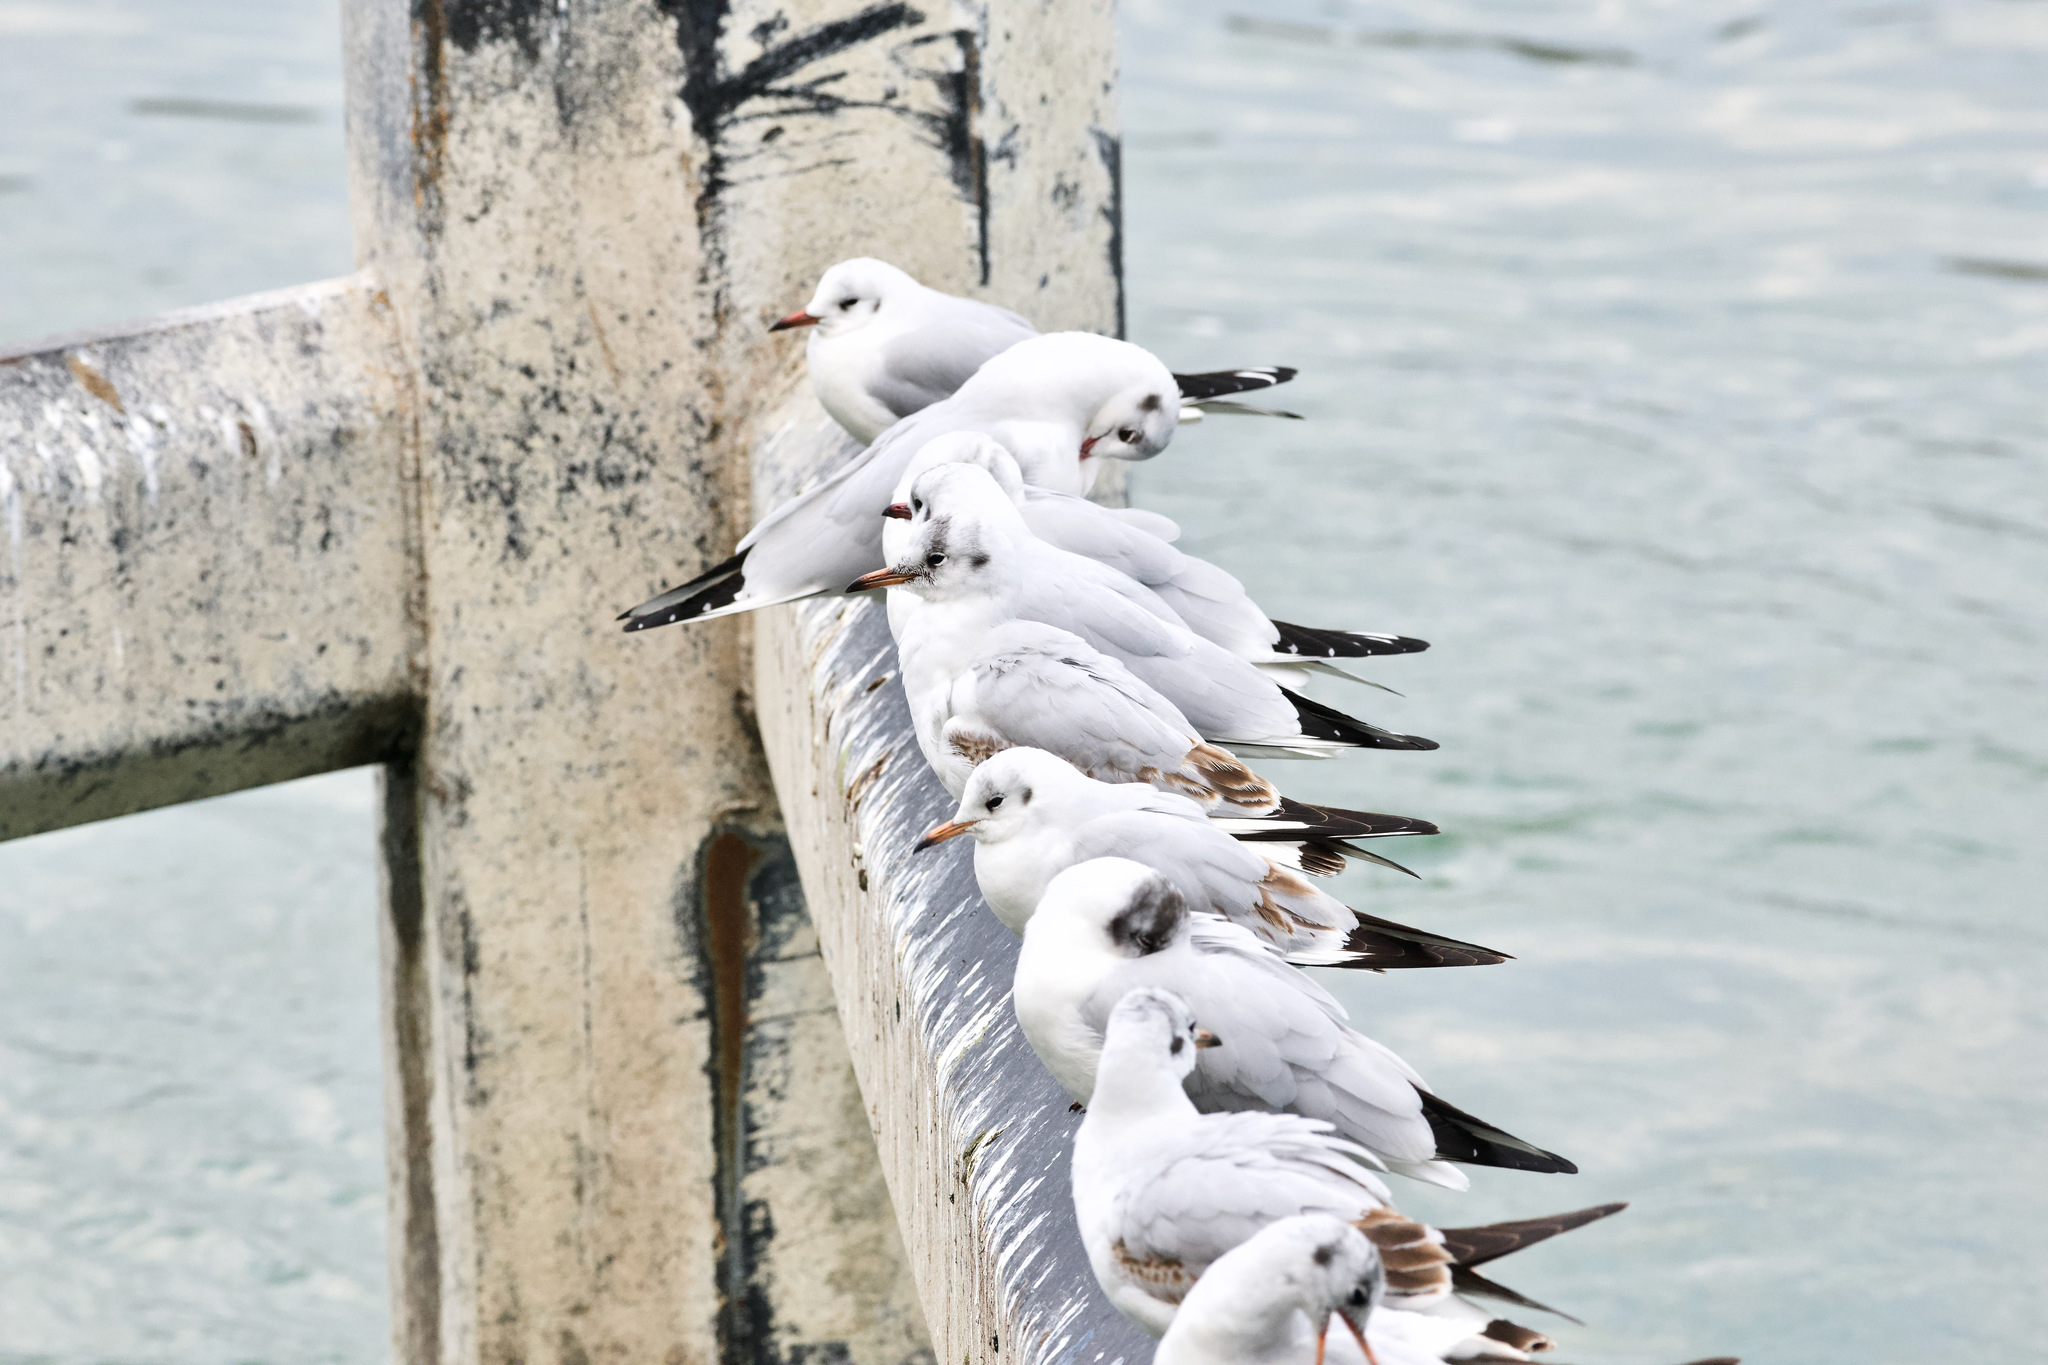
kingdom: Animalia
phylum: Chordata
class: Aves
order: Charadriiformes
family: Laridae
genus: Chroicocephalus
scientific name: Chroicocephalus ridibundus
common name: Black-headed gull
